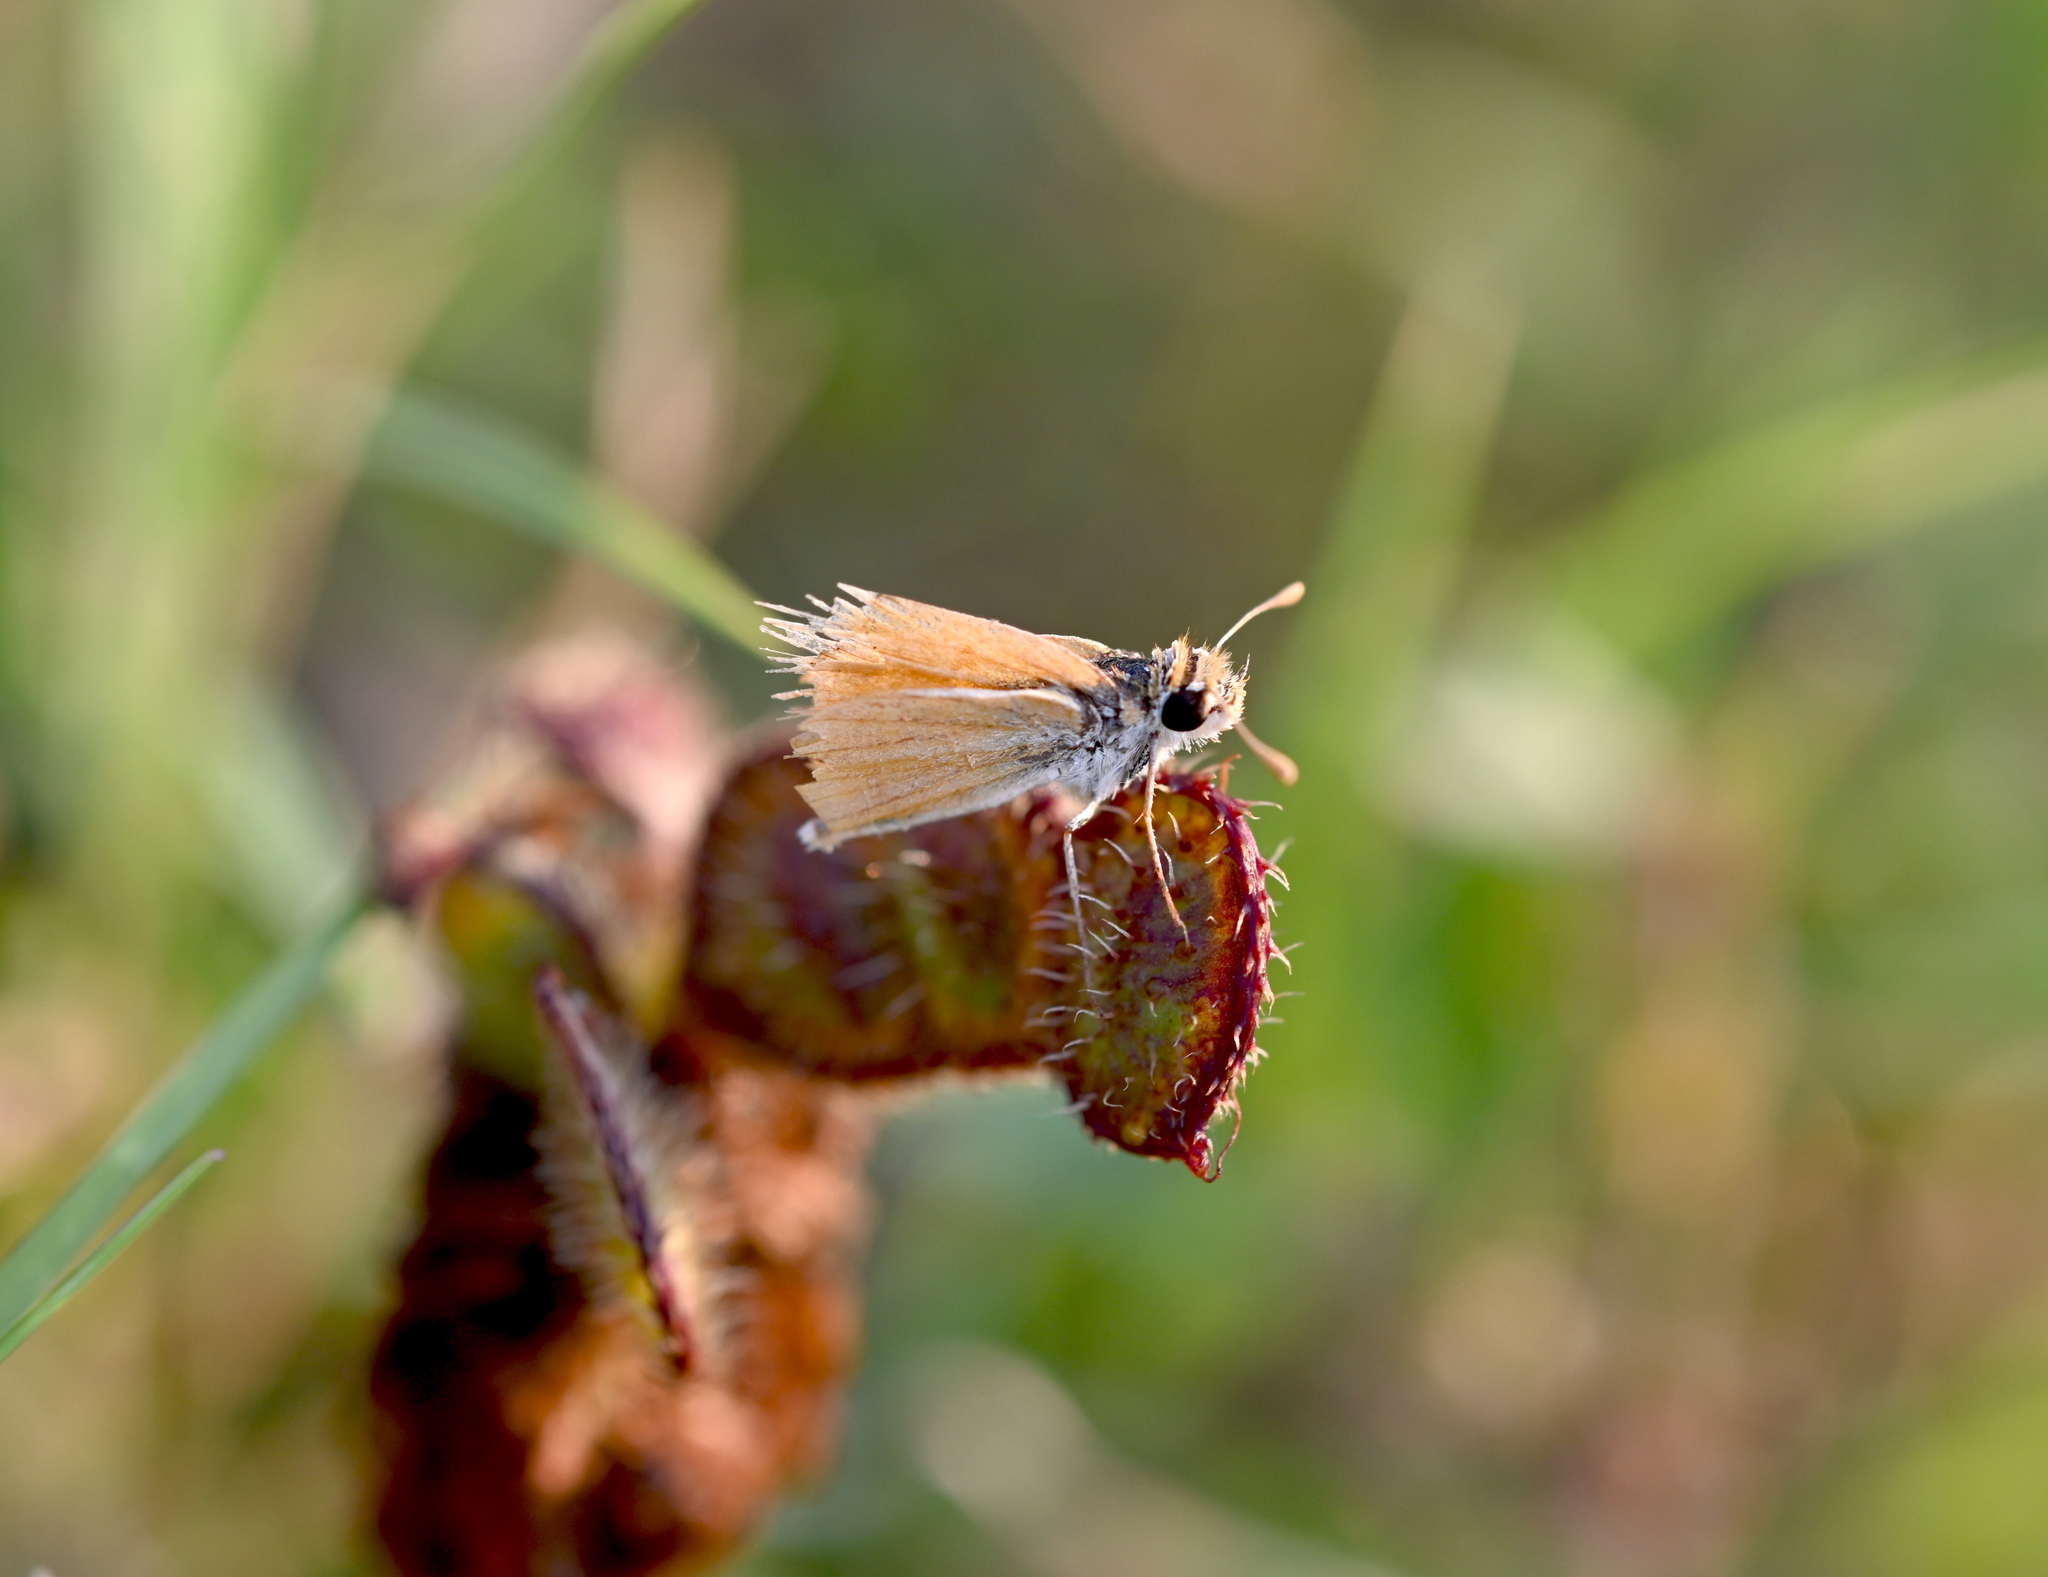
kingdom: Animalia
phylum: Arthropoda
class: Insecta
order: Lepidoptera
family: Hesperiidae
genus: Copaeodes
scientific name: Copaeodes minima
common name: Southern skipperling
